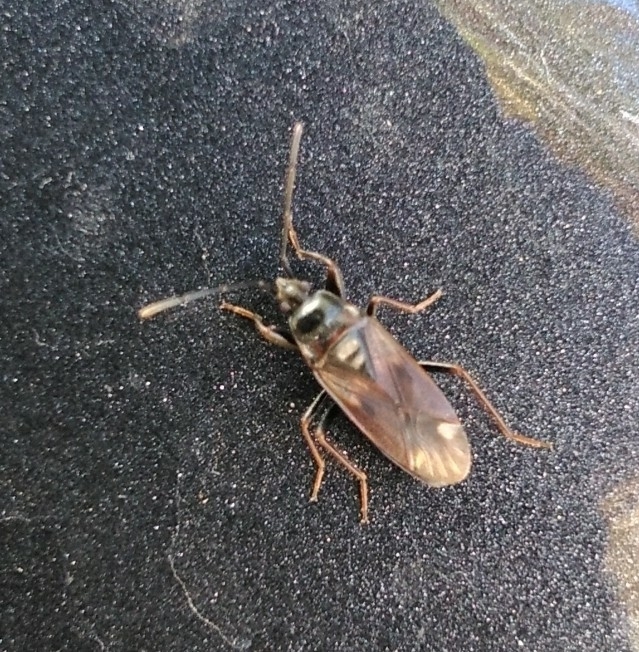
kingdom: Animalia
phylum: Arthropoda
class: Insecta
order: Hemiptera
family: Rhyparochromidae
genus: Eremocoris
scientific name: Eremocoris fenestratus
